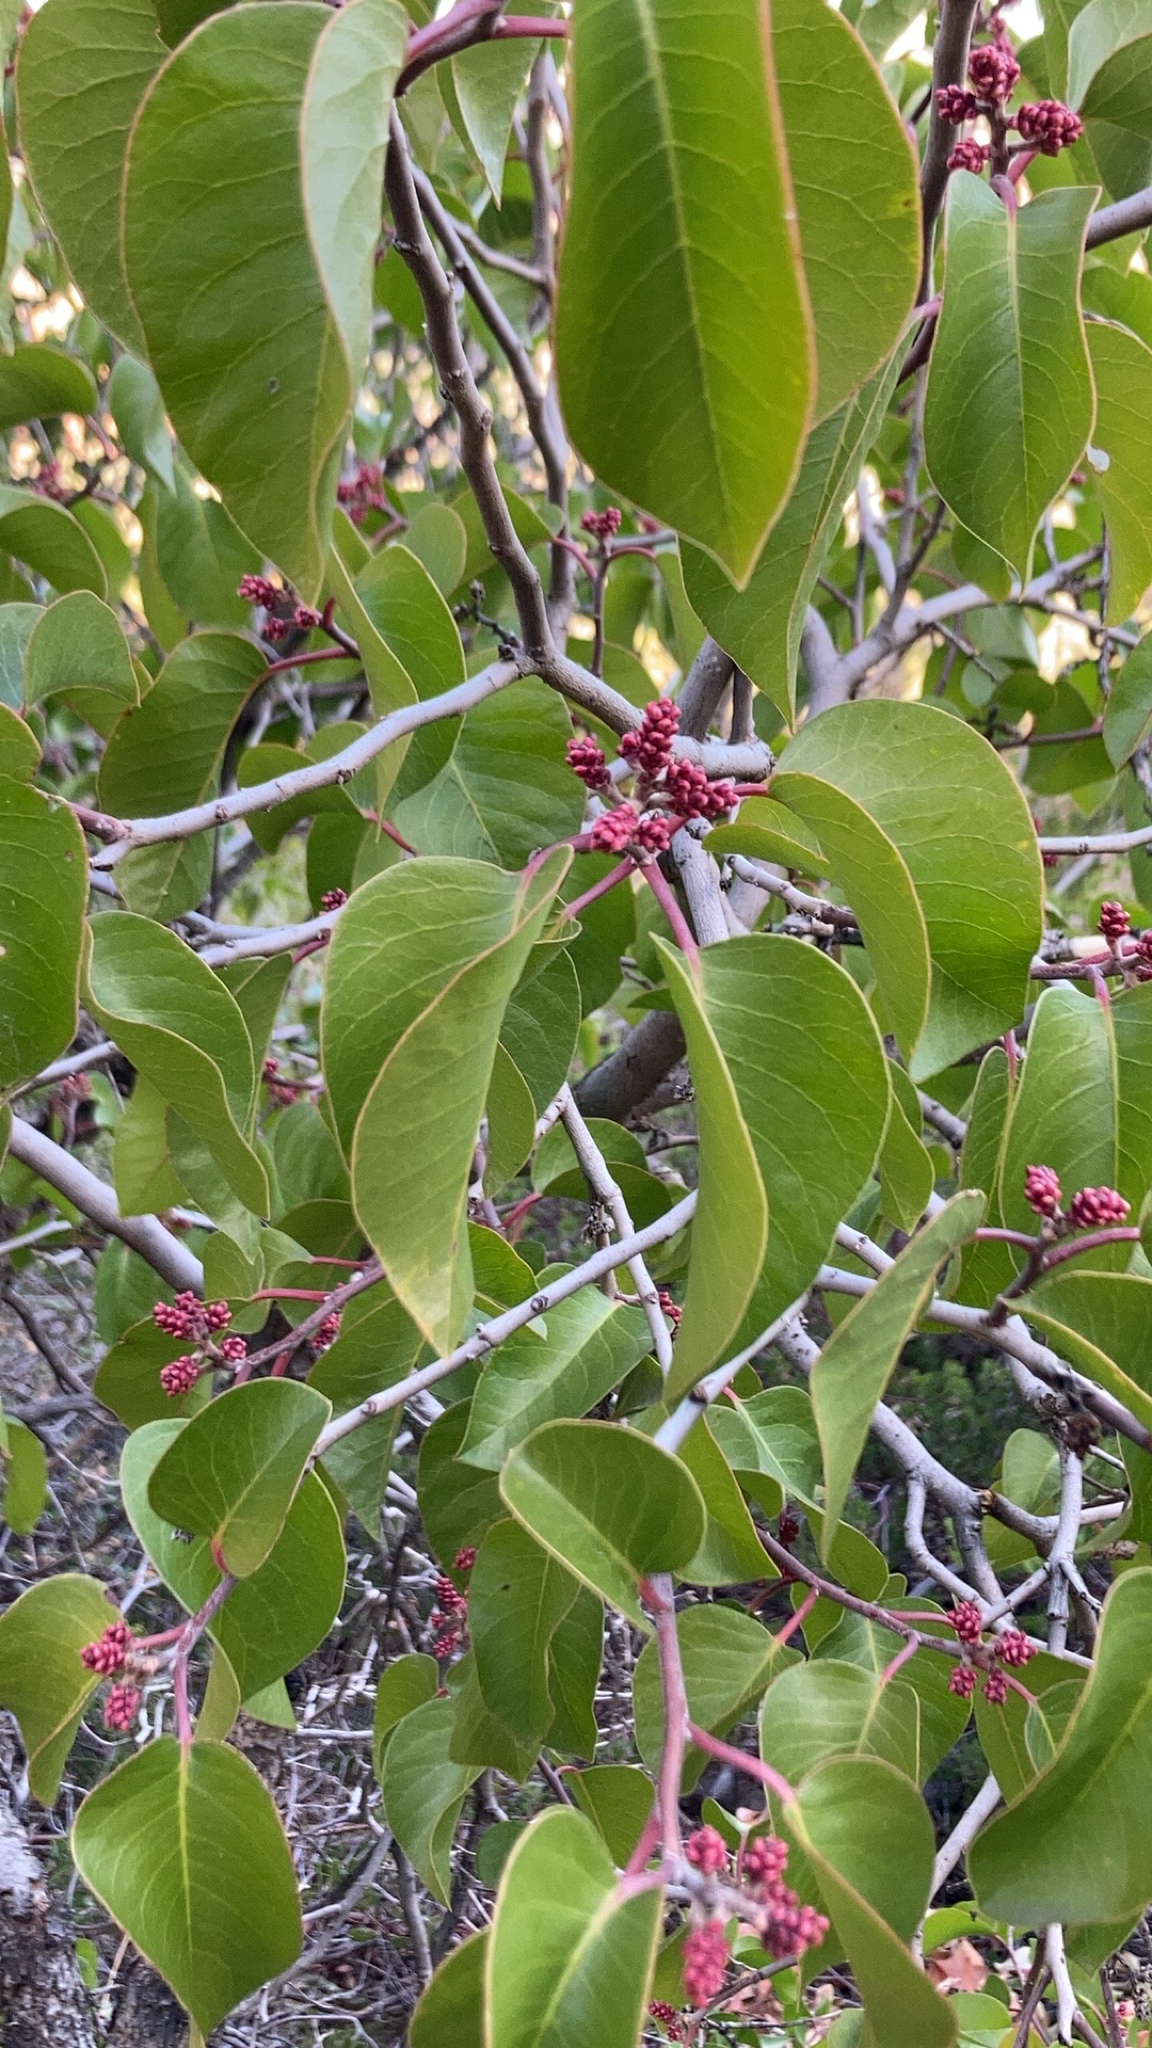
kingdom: Plantae
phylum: Tracheophyta
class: Magnoliopsida
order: Sapindales
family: Anacardiaceae
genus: Rhus
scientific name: Rhus ovata
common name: Sugar sumac
